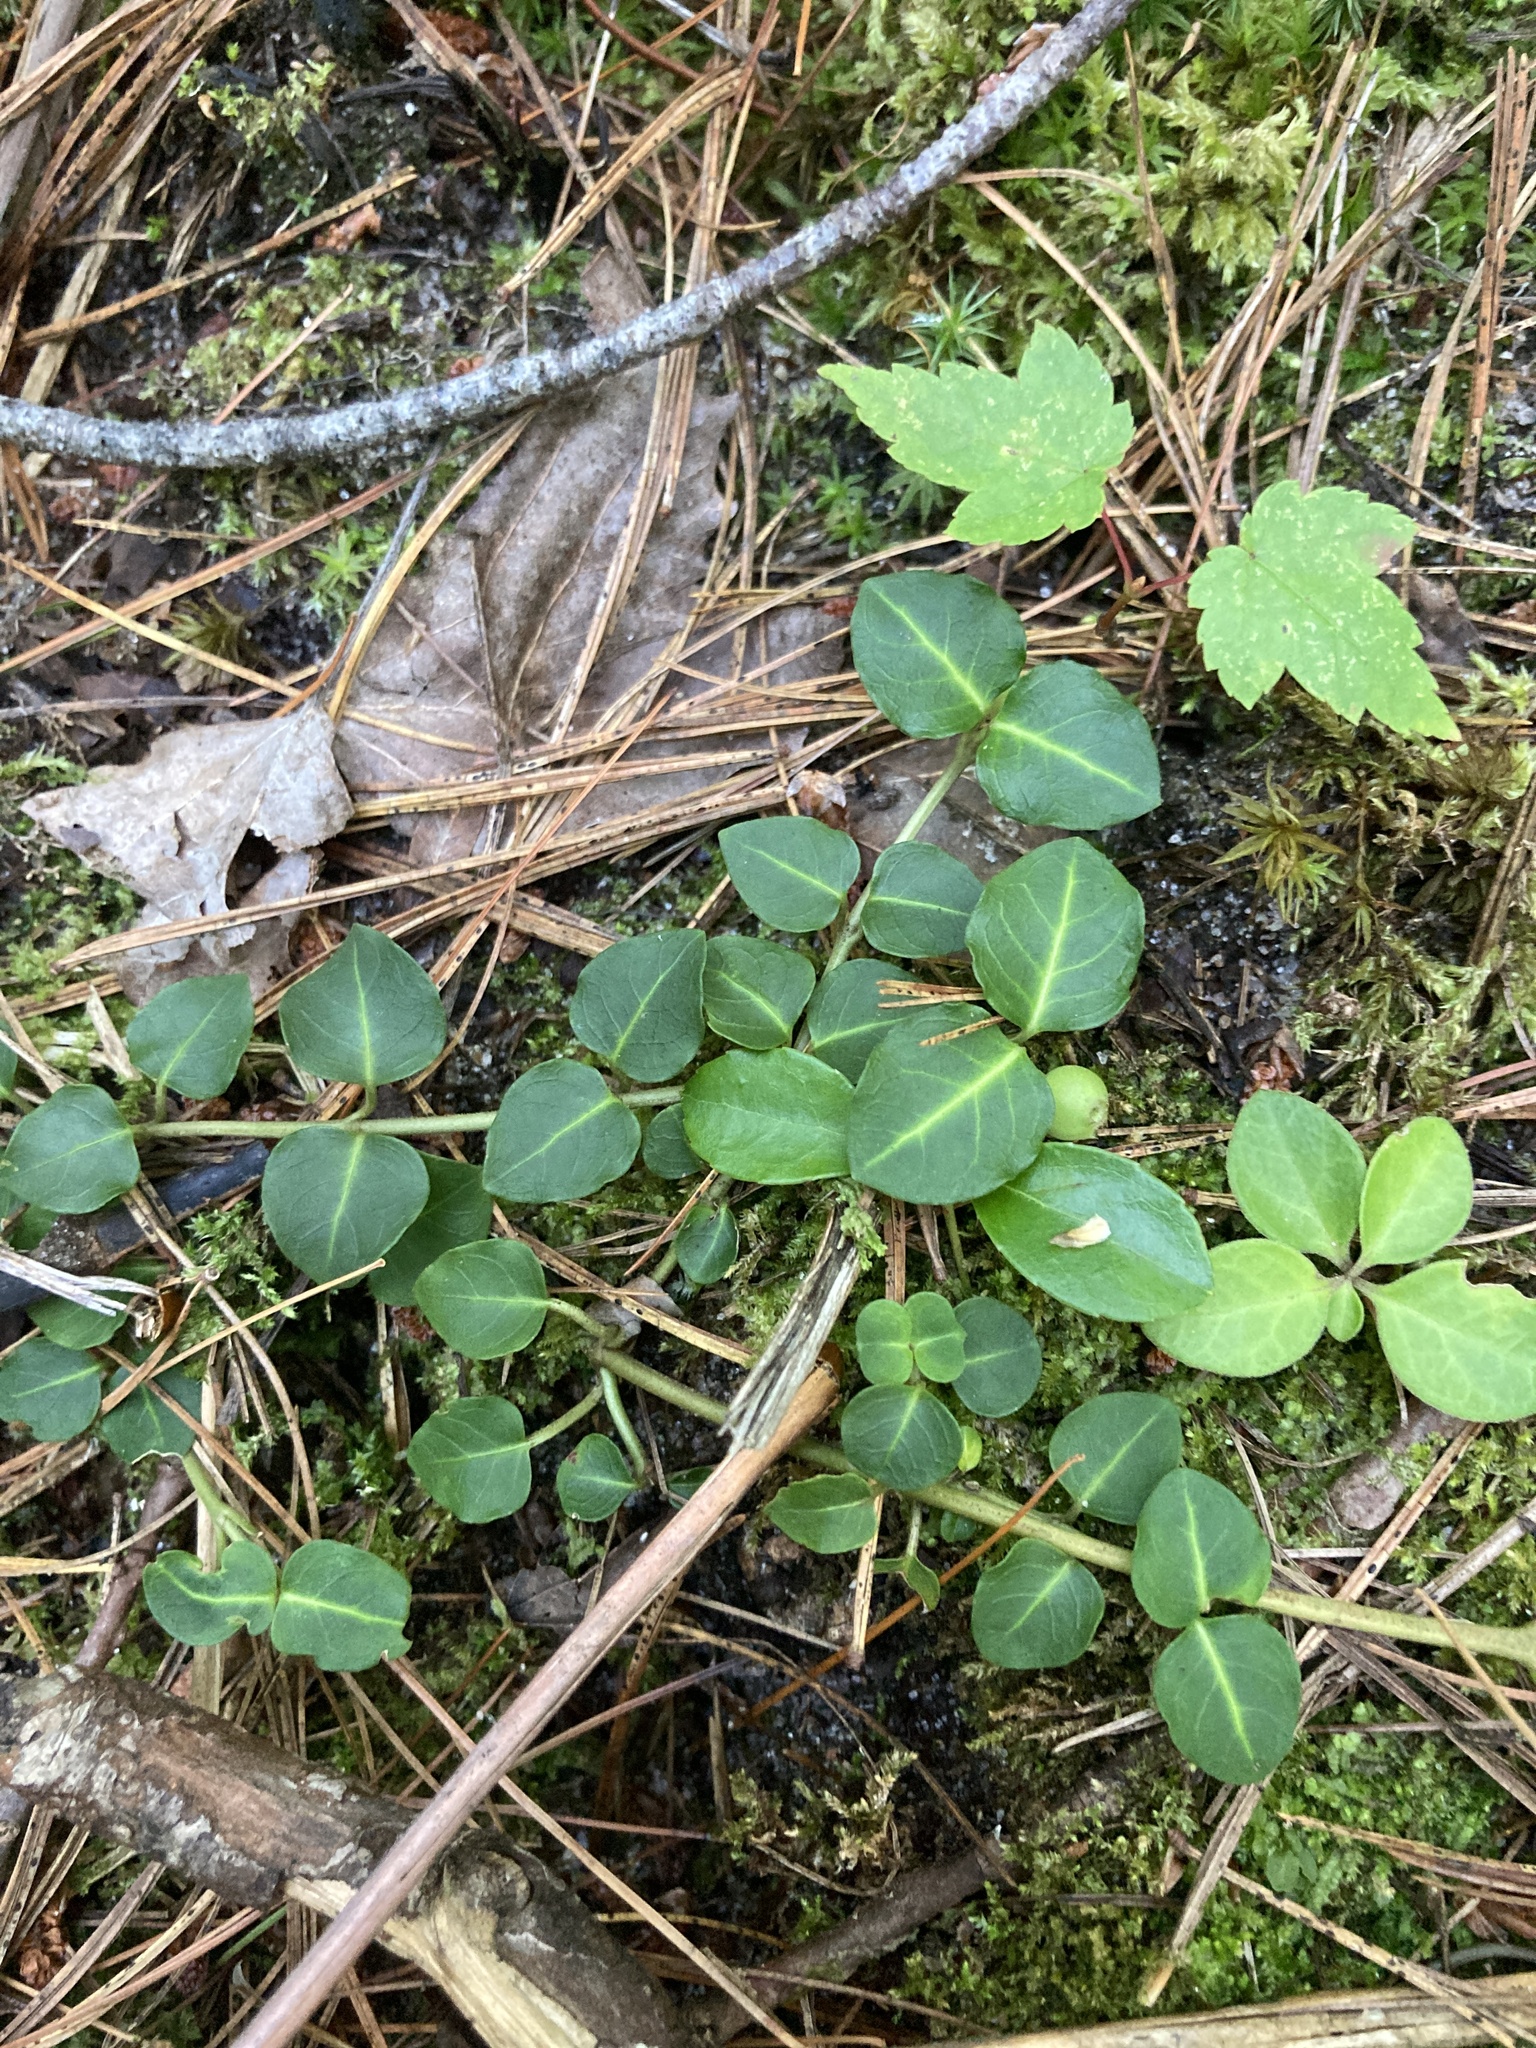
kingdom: Plantae
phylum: Tracheophyta
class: Magnoliopsida
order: Gentianales
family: Rubiaceae
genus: Mitchella
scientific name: Mitchella repens
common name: Partridge-berry
